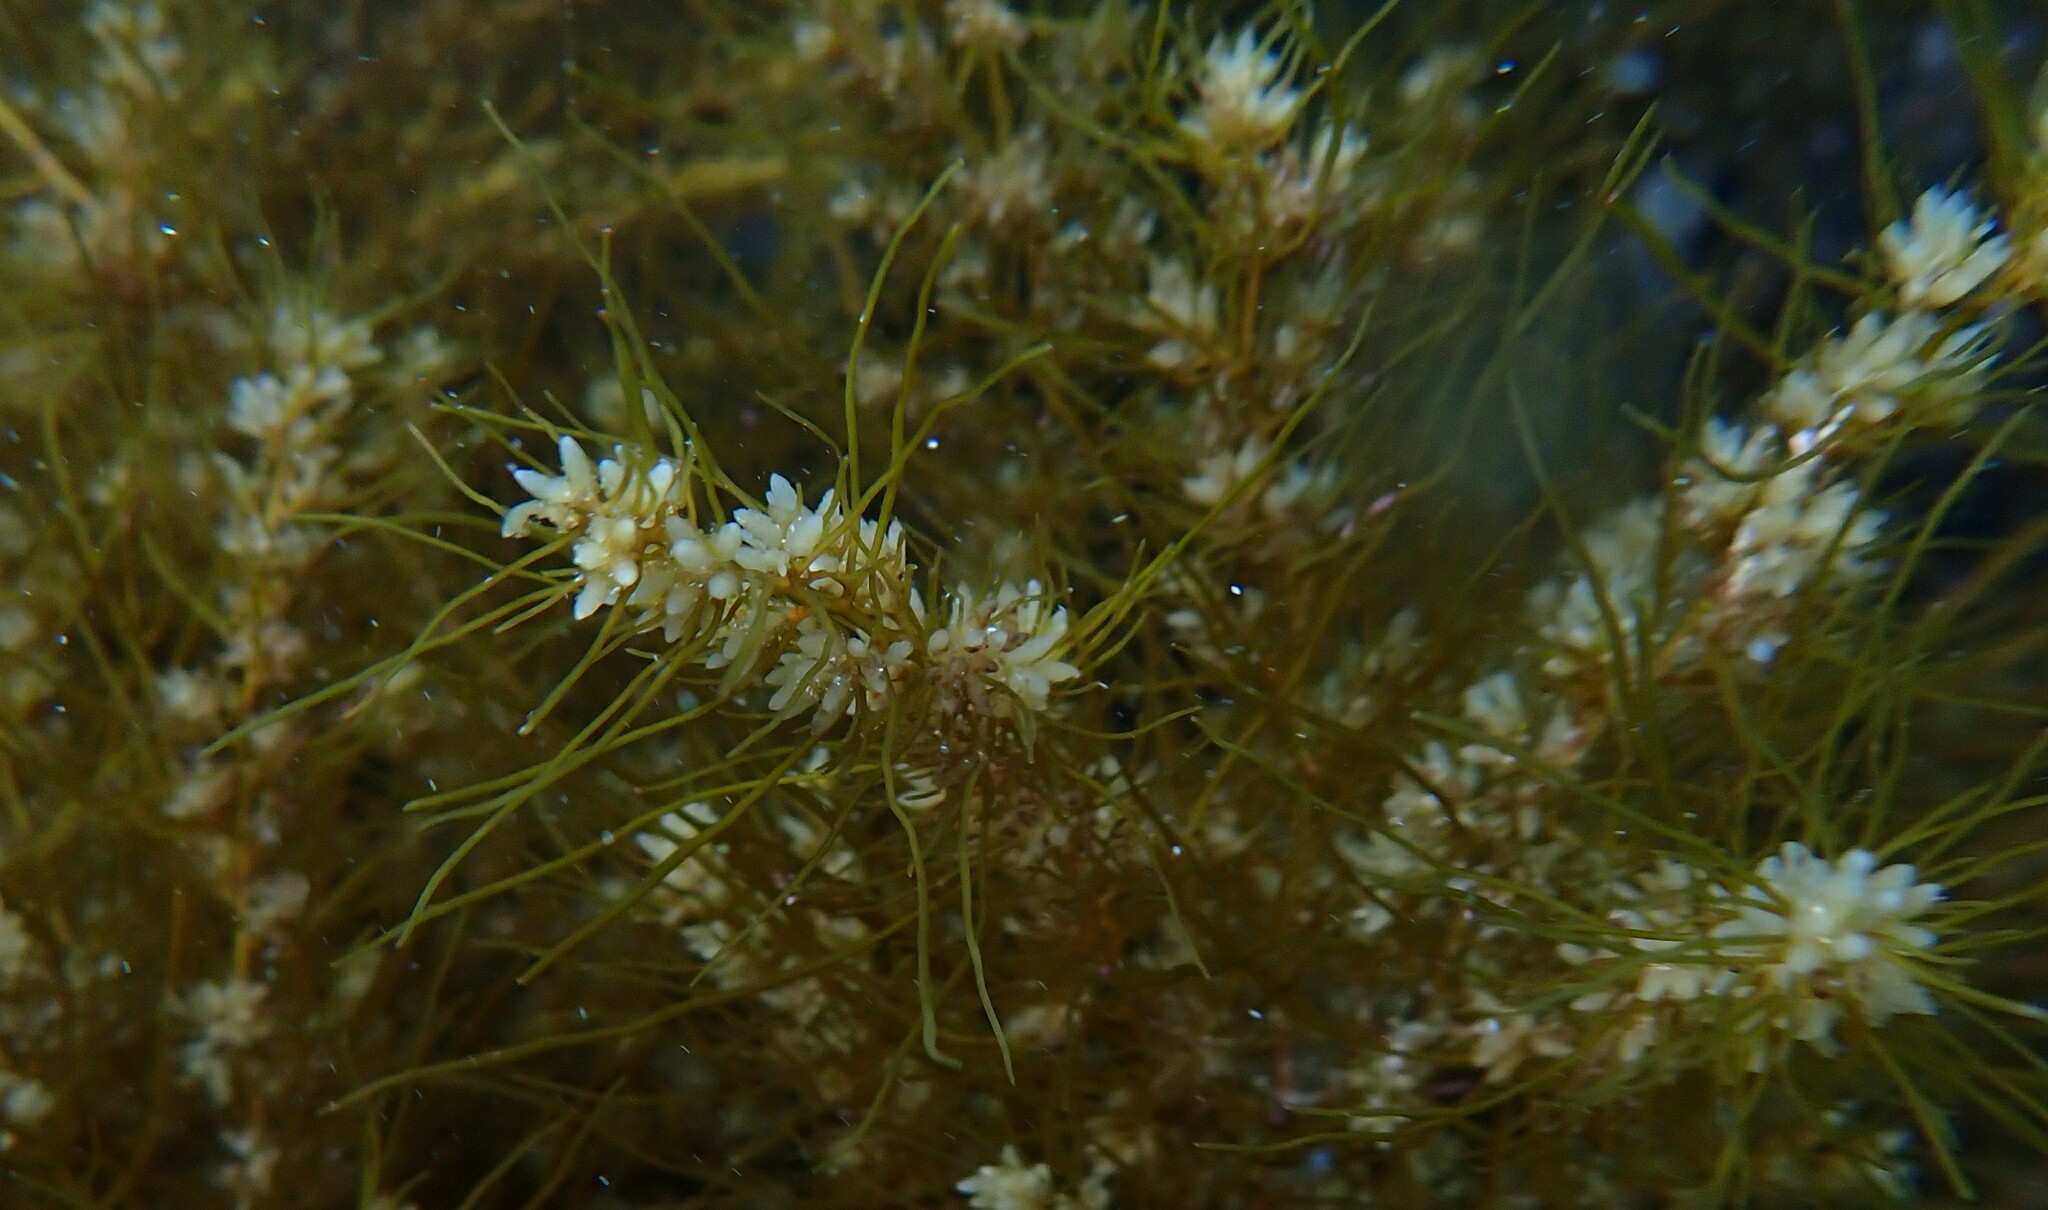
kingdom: Chromista
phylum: Ochrophyta
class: Phaeophyceae
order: Fucales
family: Sargassaceae
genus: Cystoseira
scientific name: Cystoseira Sirophysalis trinodis
